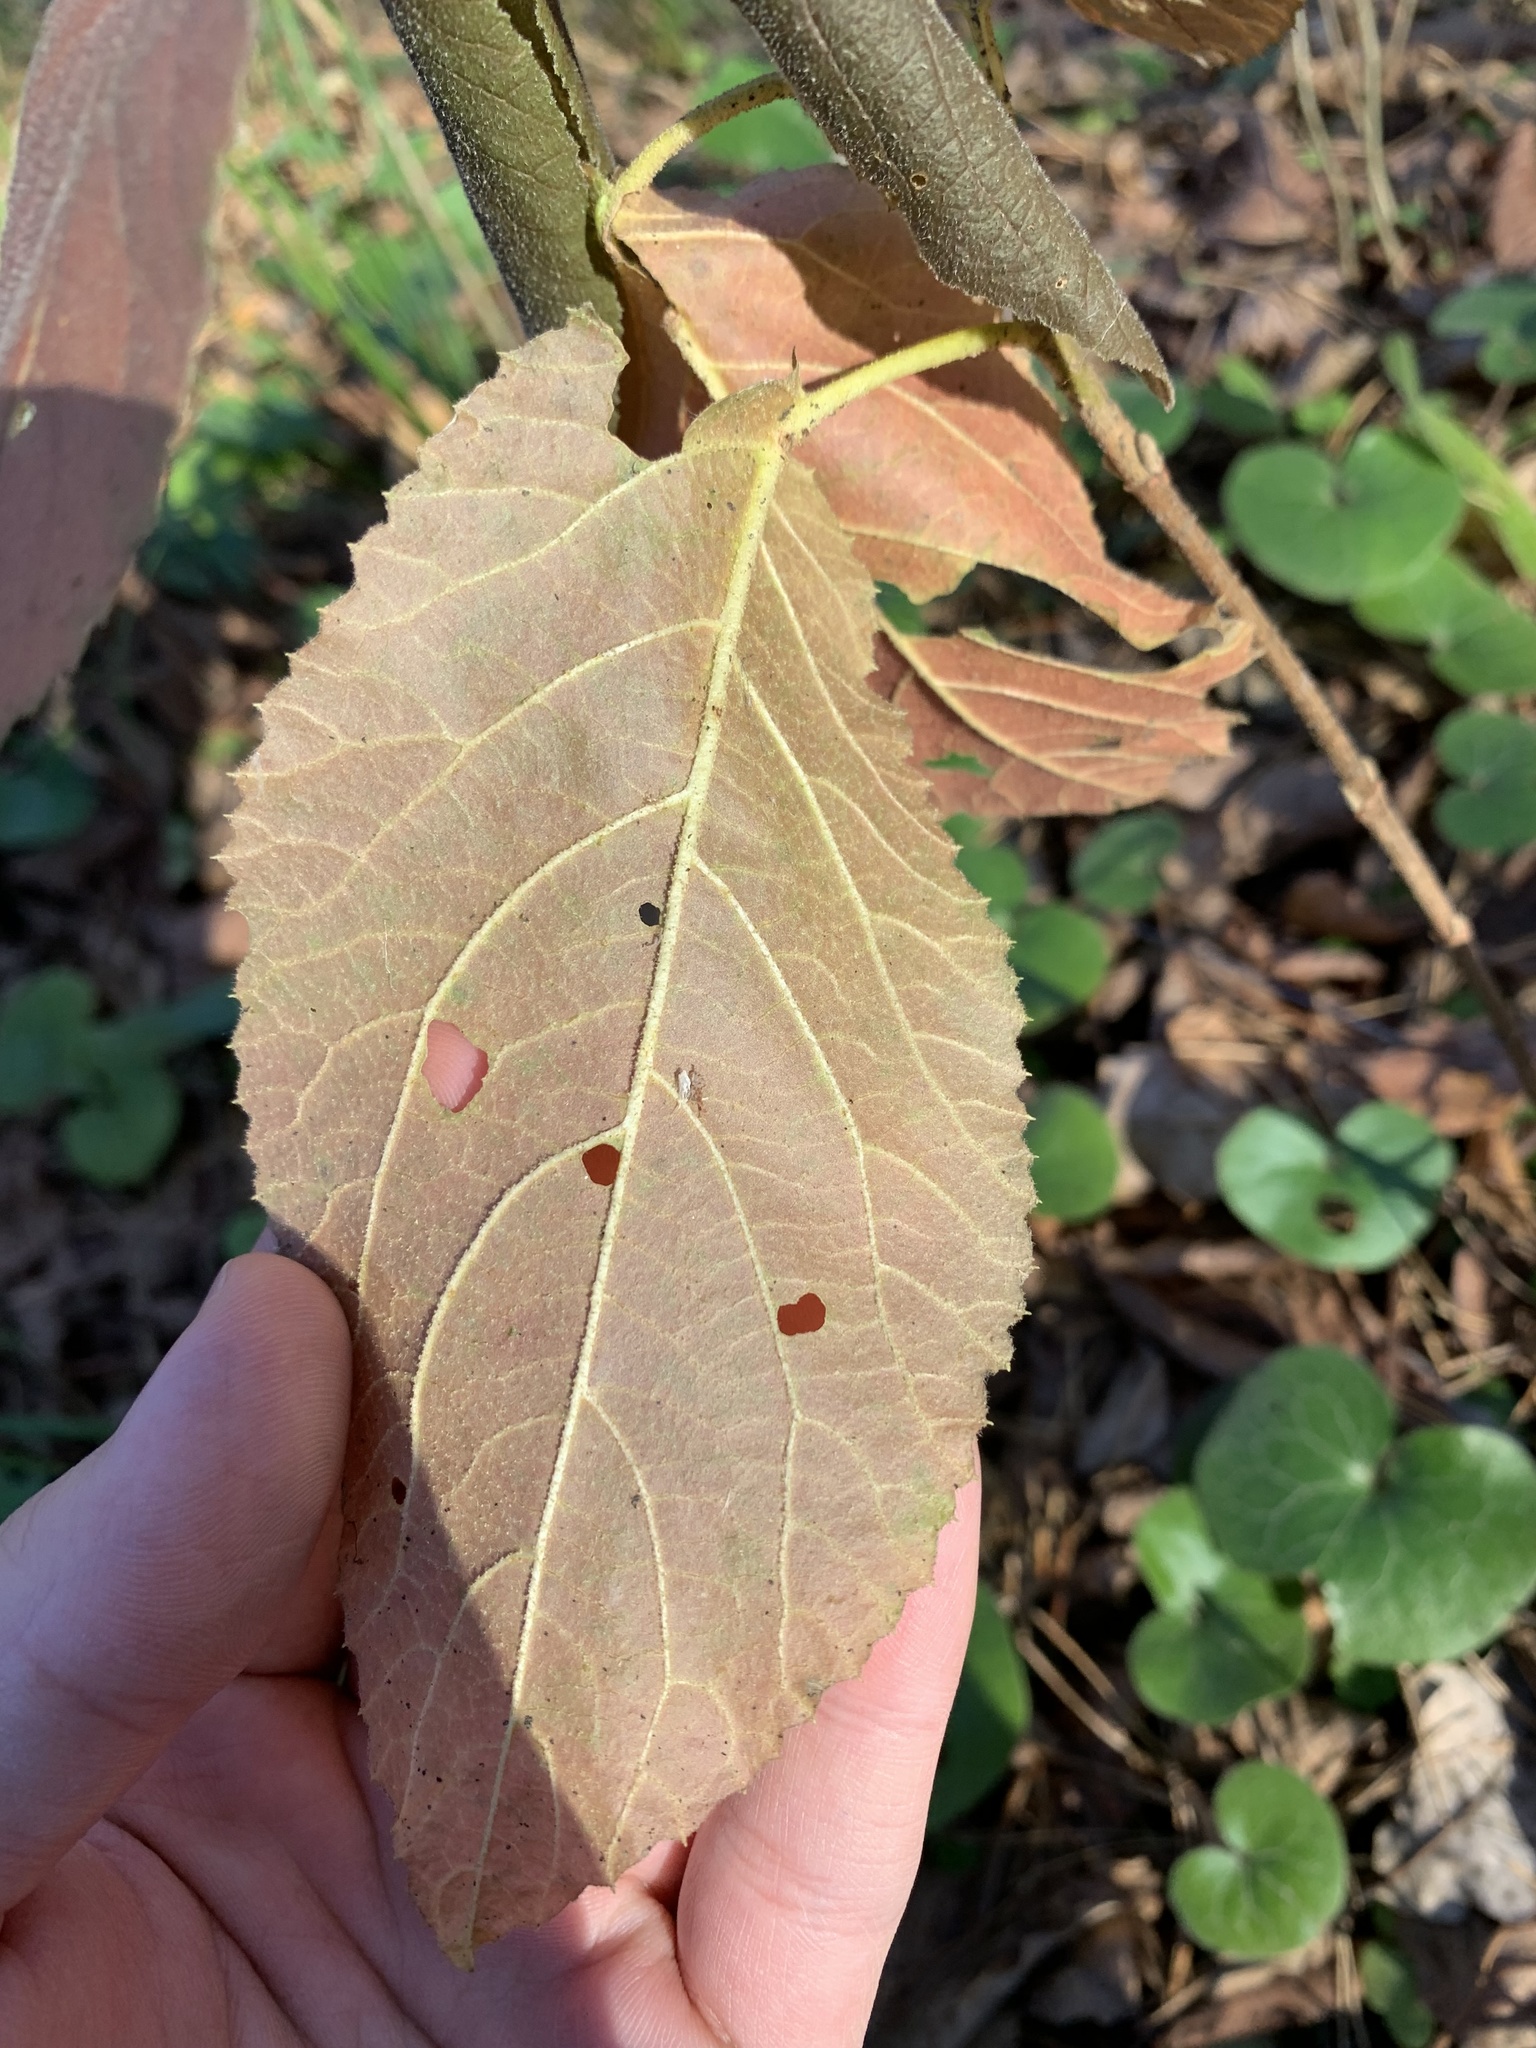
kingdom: Plantae
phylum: Tracheophyta
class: Magnoliopsida
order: Dipsacales
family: Viburnaceae
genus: Viburnum
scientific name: Viburnum lantana
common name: Wayfaring tree
